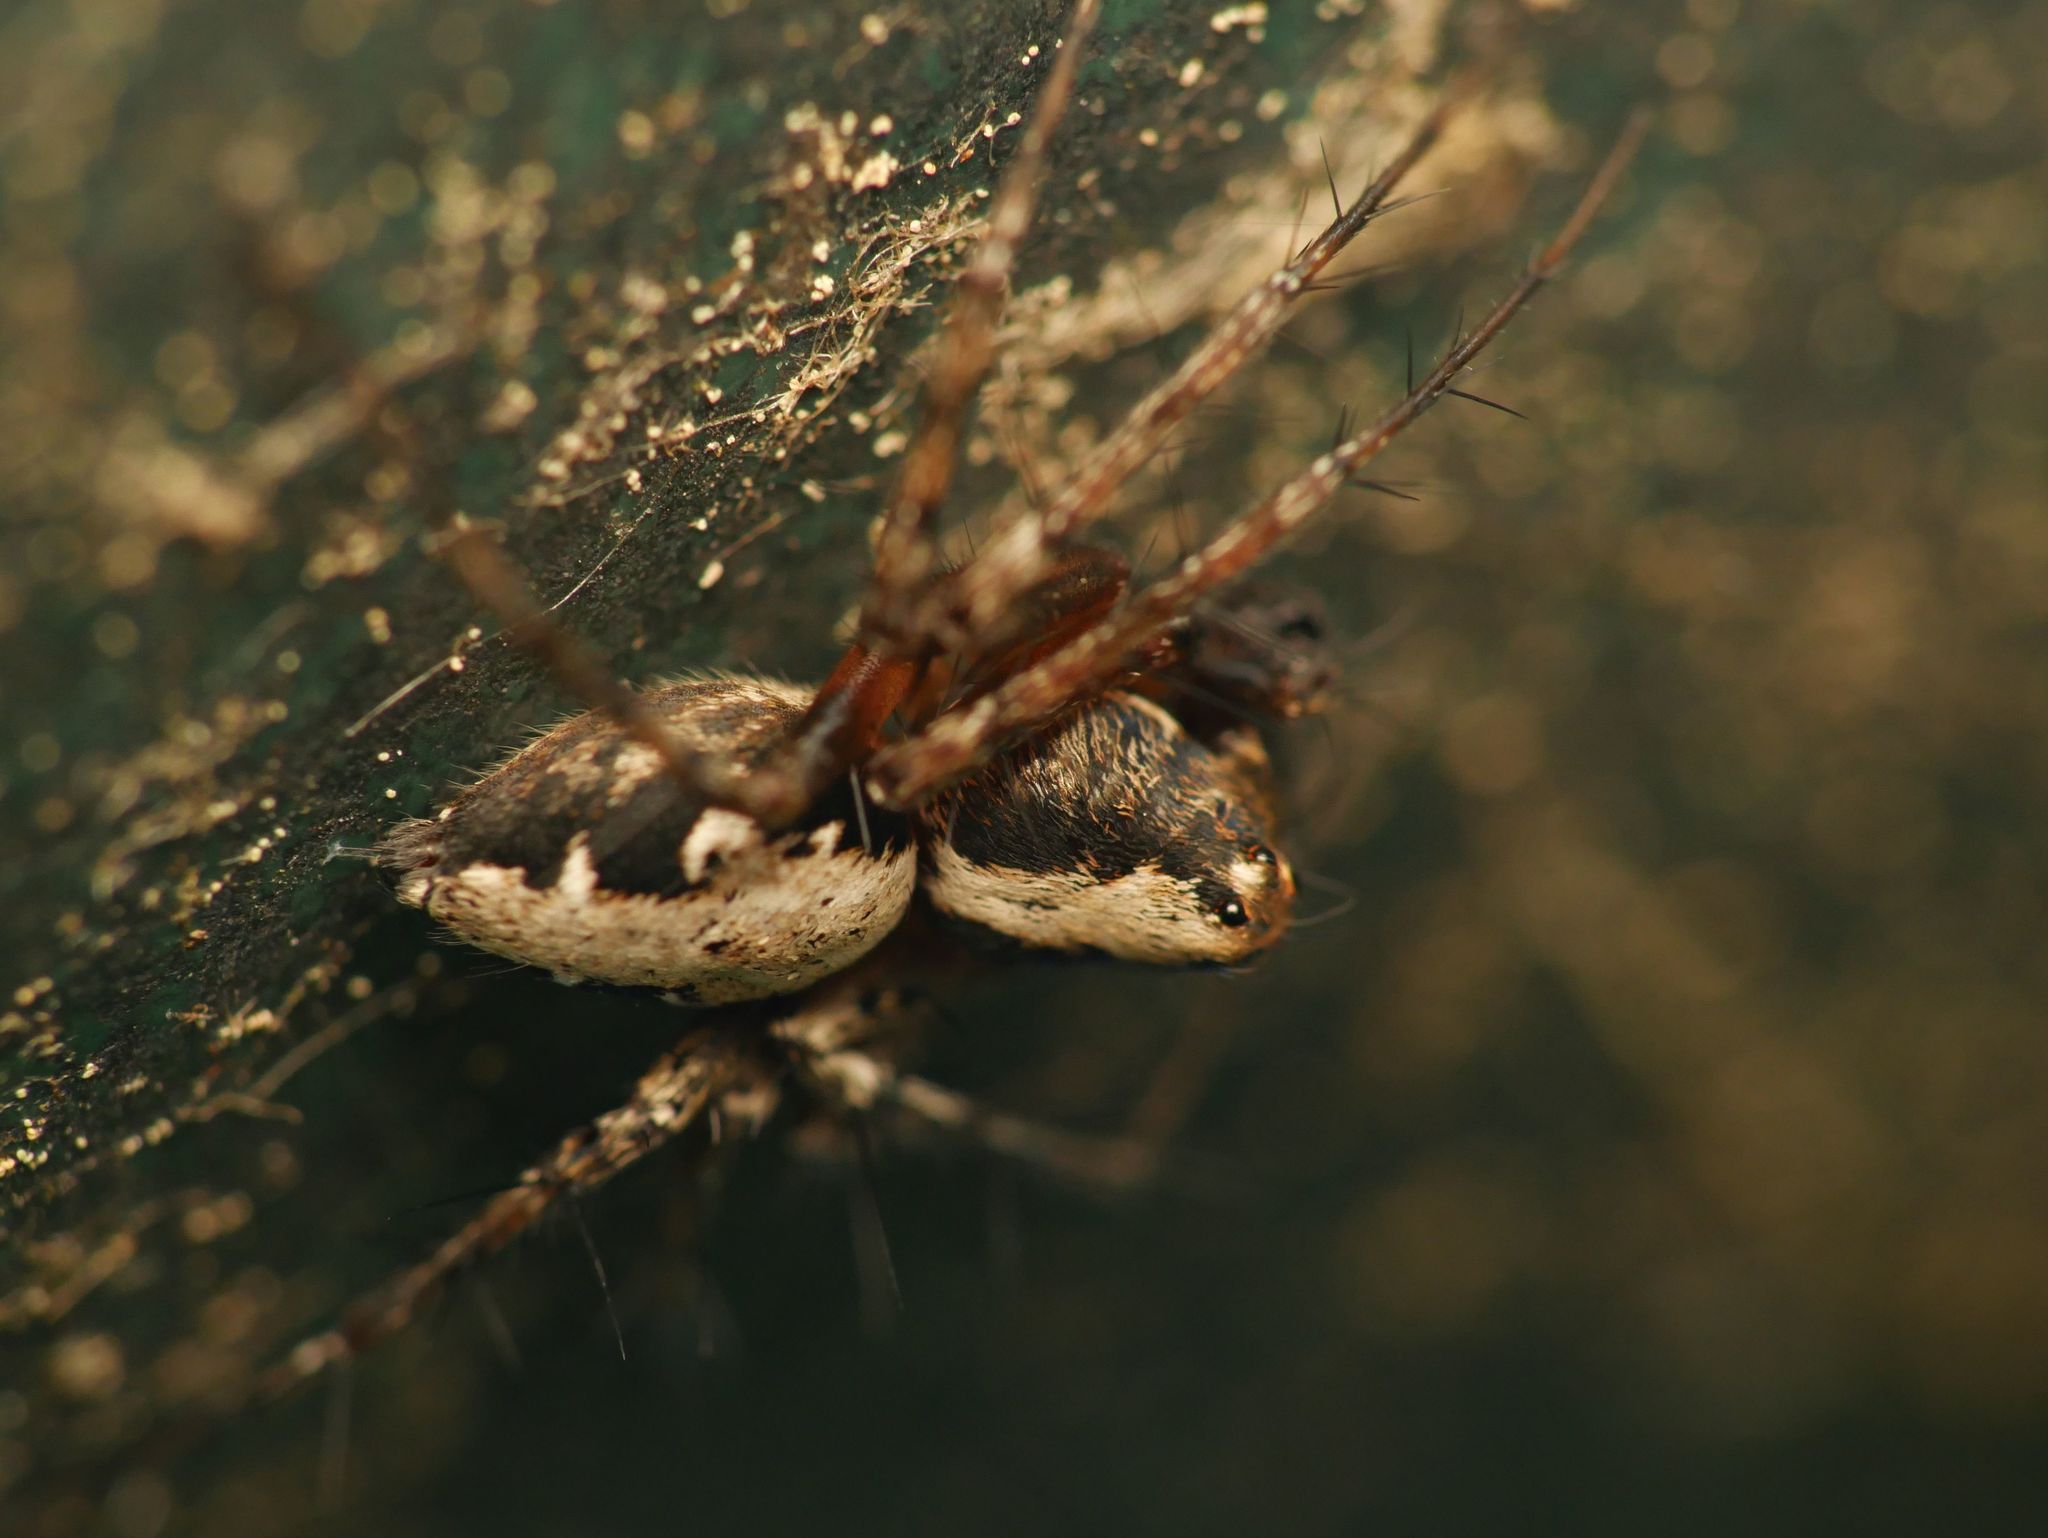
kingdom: Animalia
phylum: Arthropoda
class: Arachnida
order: Araneae
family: Oxyopidae
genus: Oxyopes
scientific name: Oxyopes scalaris
